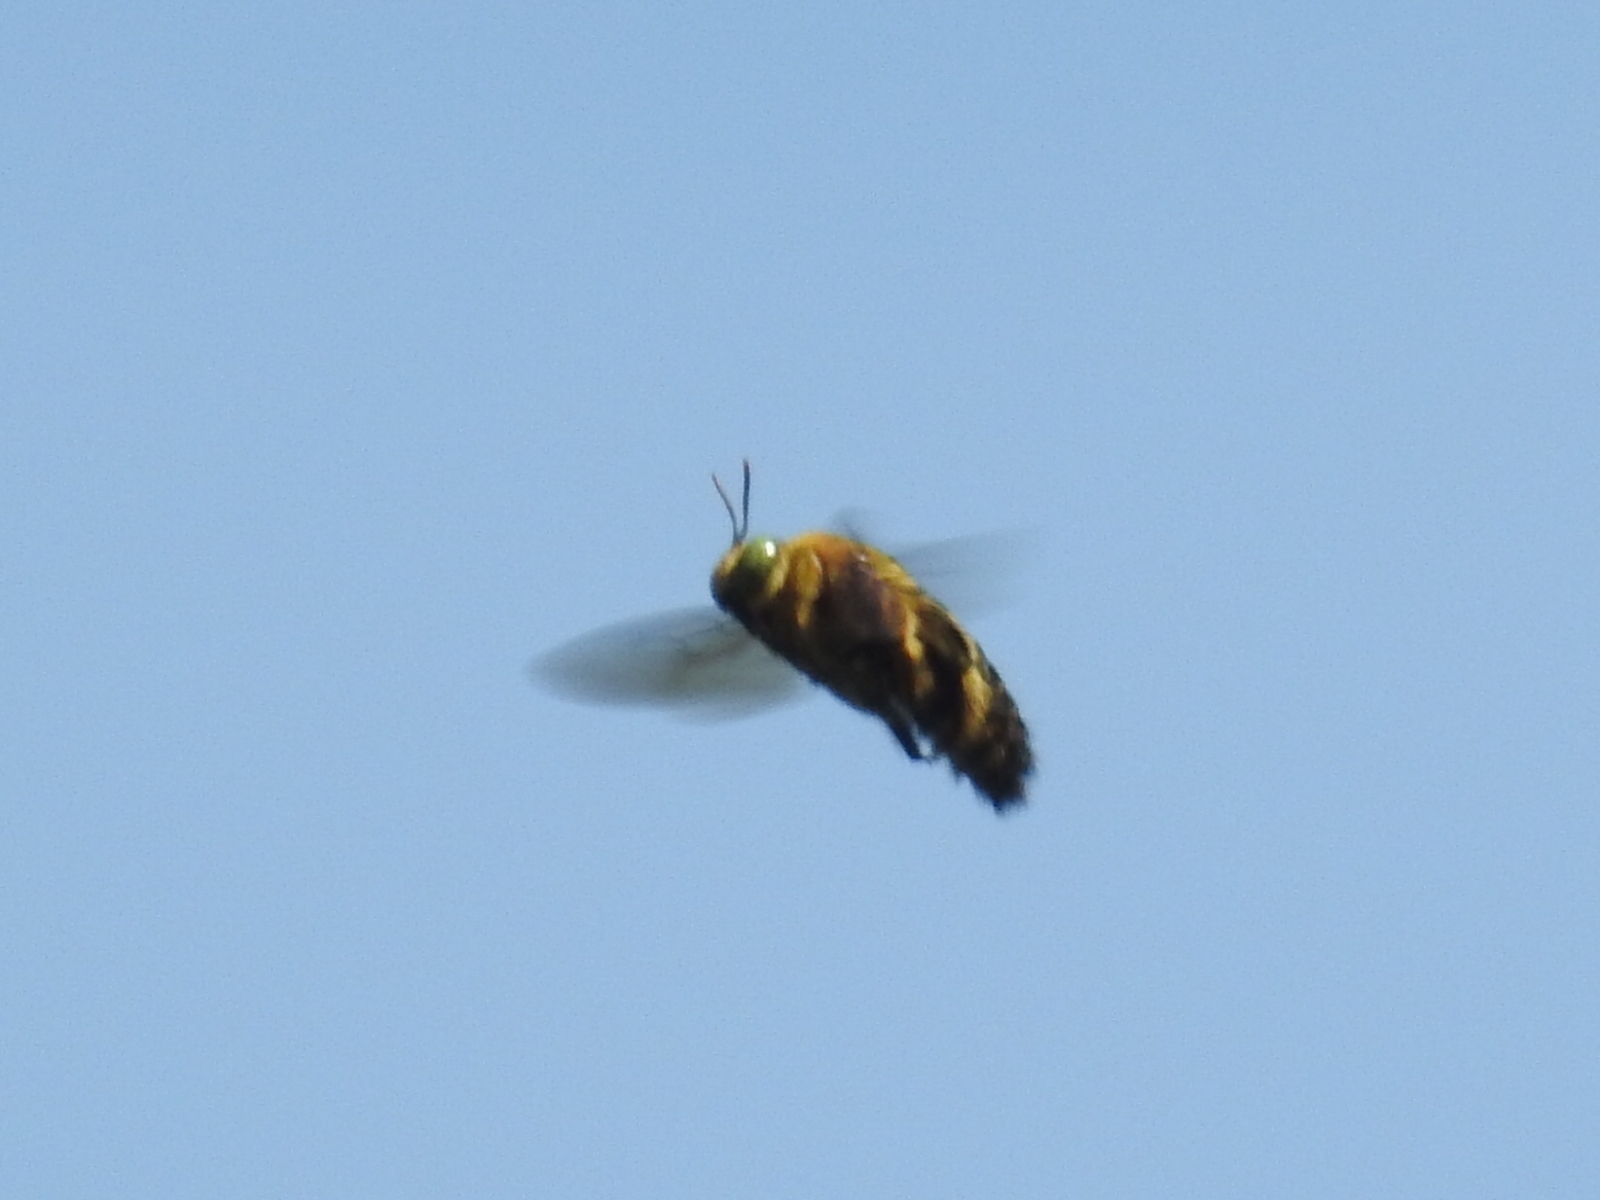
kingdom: Animalia
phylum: Arthropoda
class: Insecta
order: Hymenoptera
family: Apidae
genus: Xylocopa
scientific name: Xylocopa ocularis
